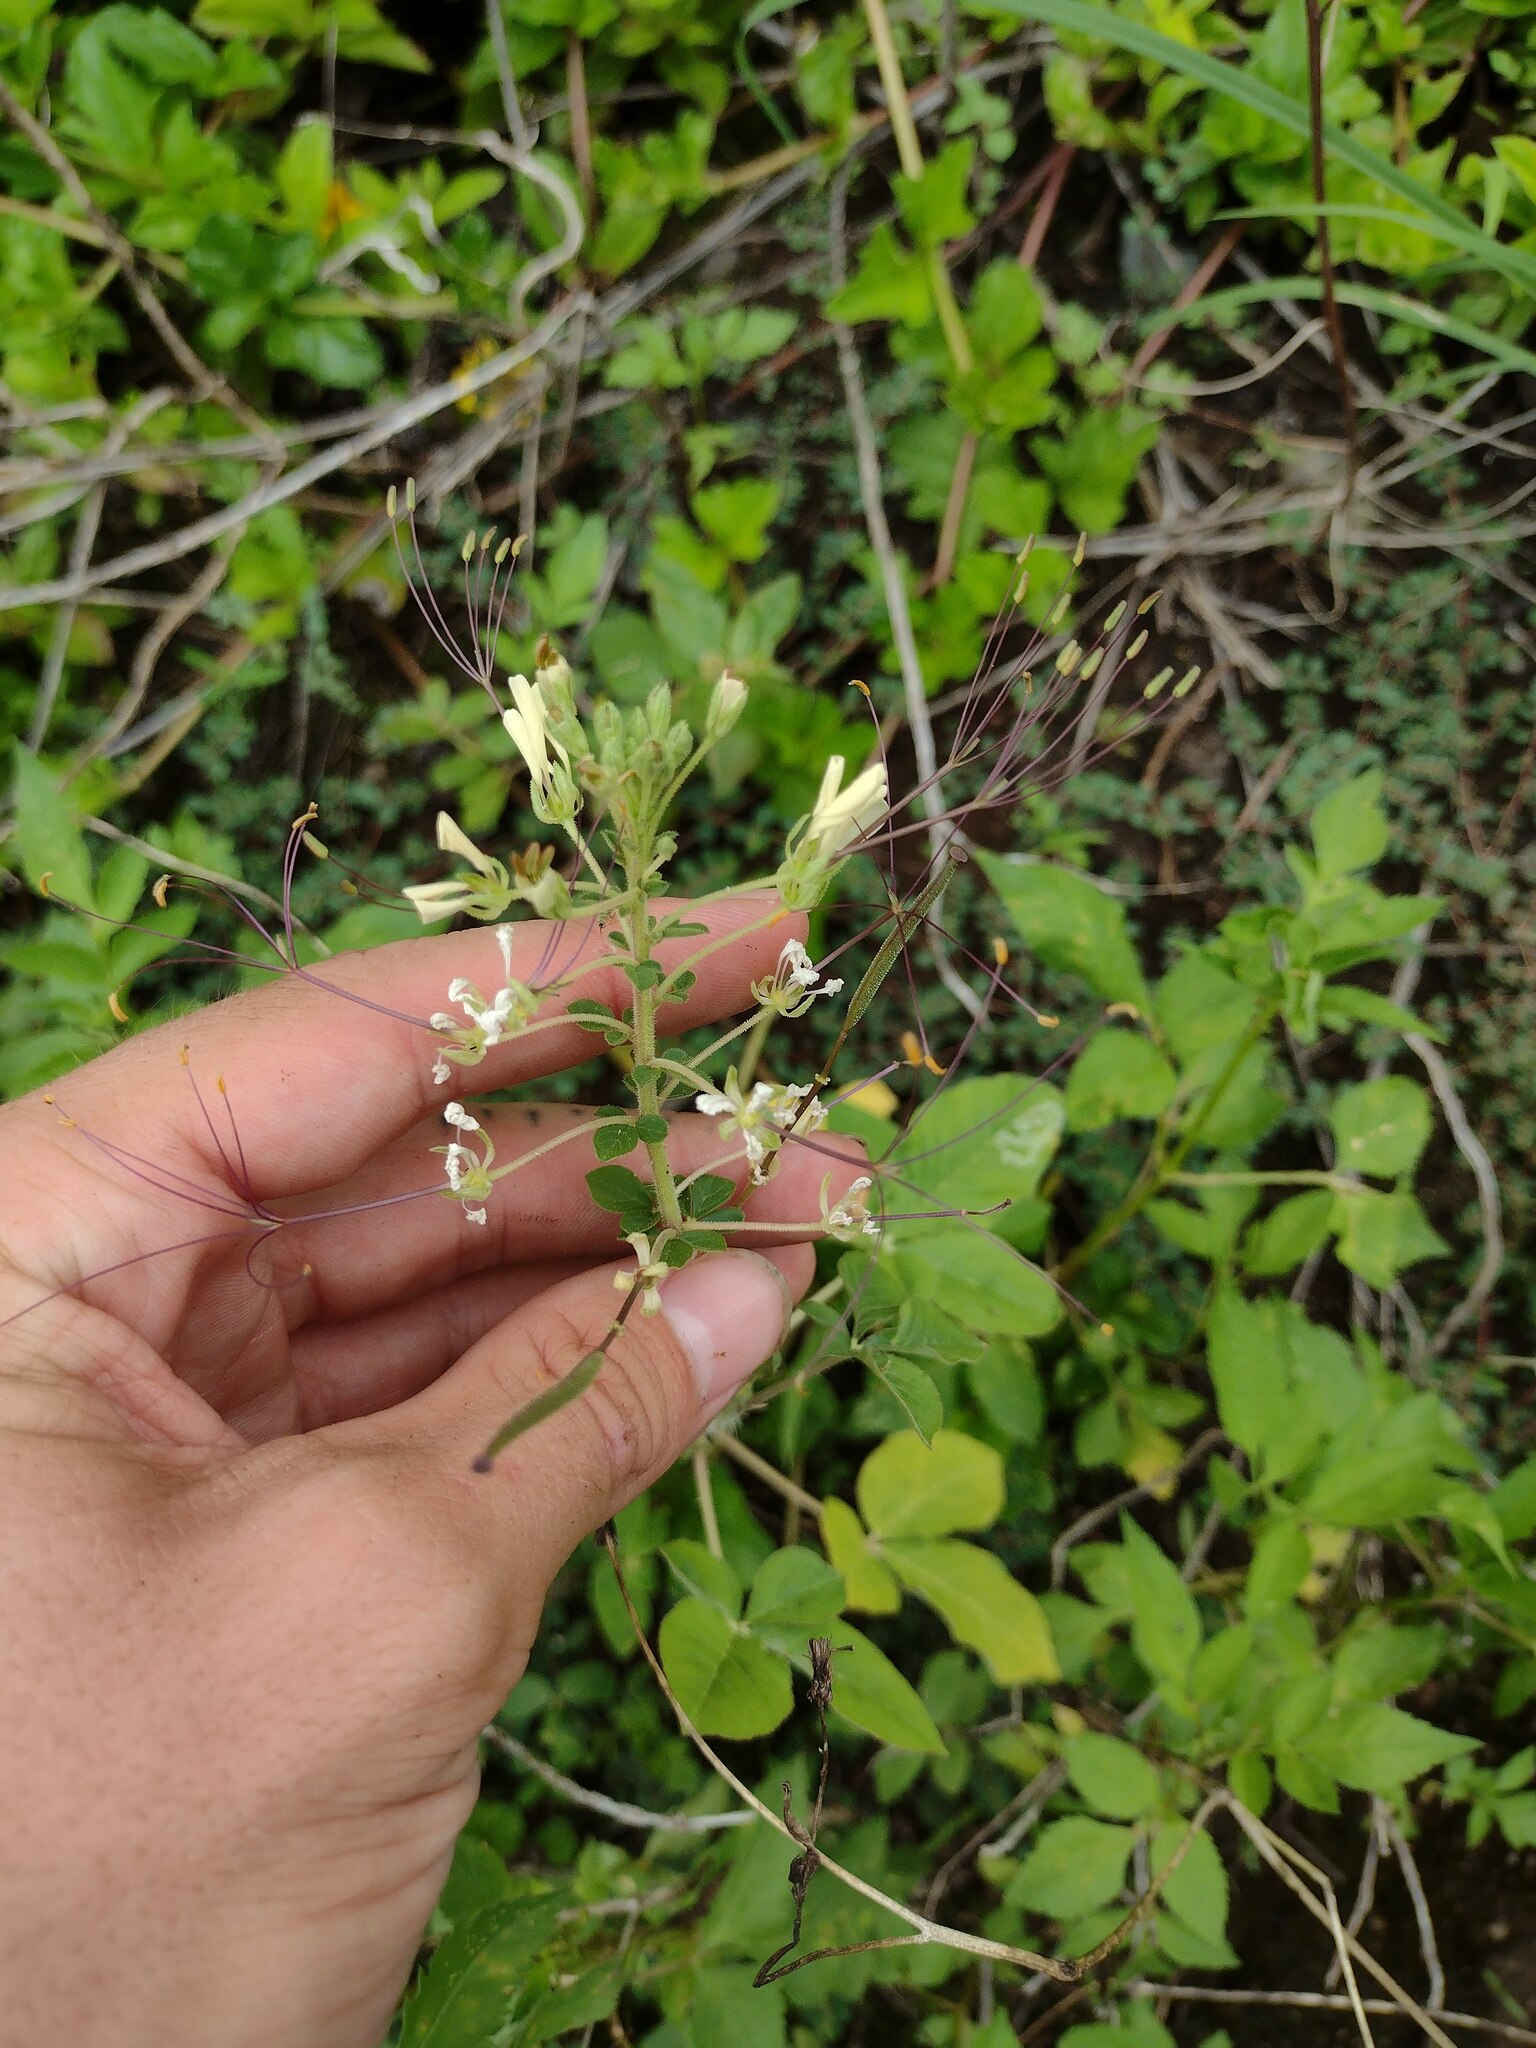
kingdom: Plantae
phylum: Tracheophyta
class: Magnoliopsida
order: Brassicales
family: Cleomaceae
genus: Gynandropsis
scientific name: Gynandropsis gynandra
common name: Spiderwisp
